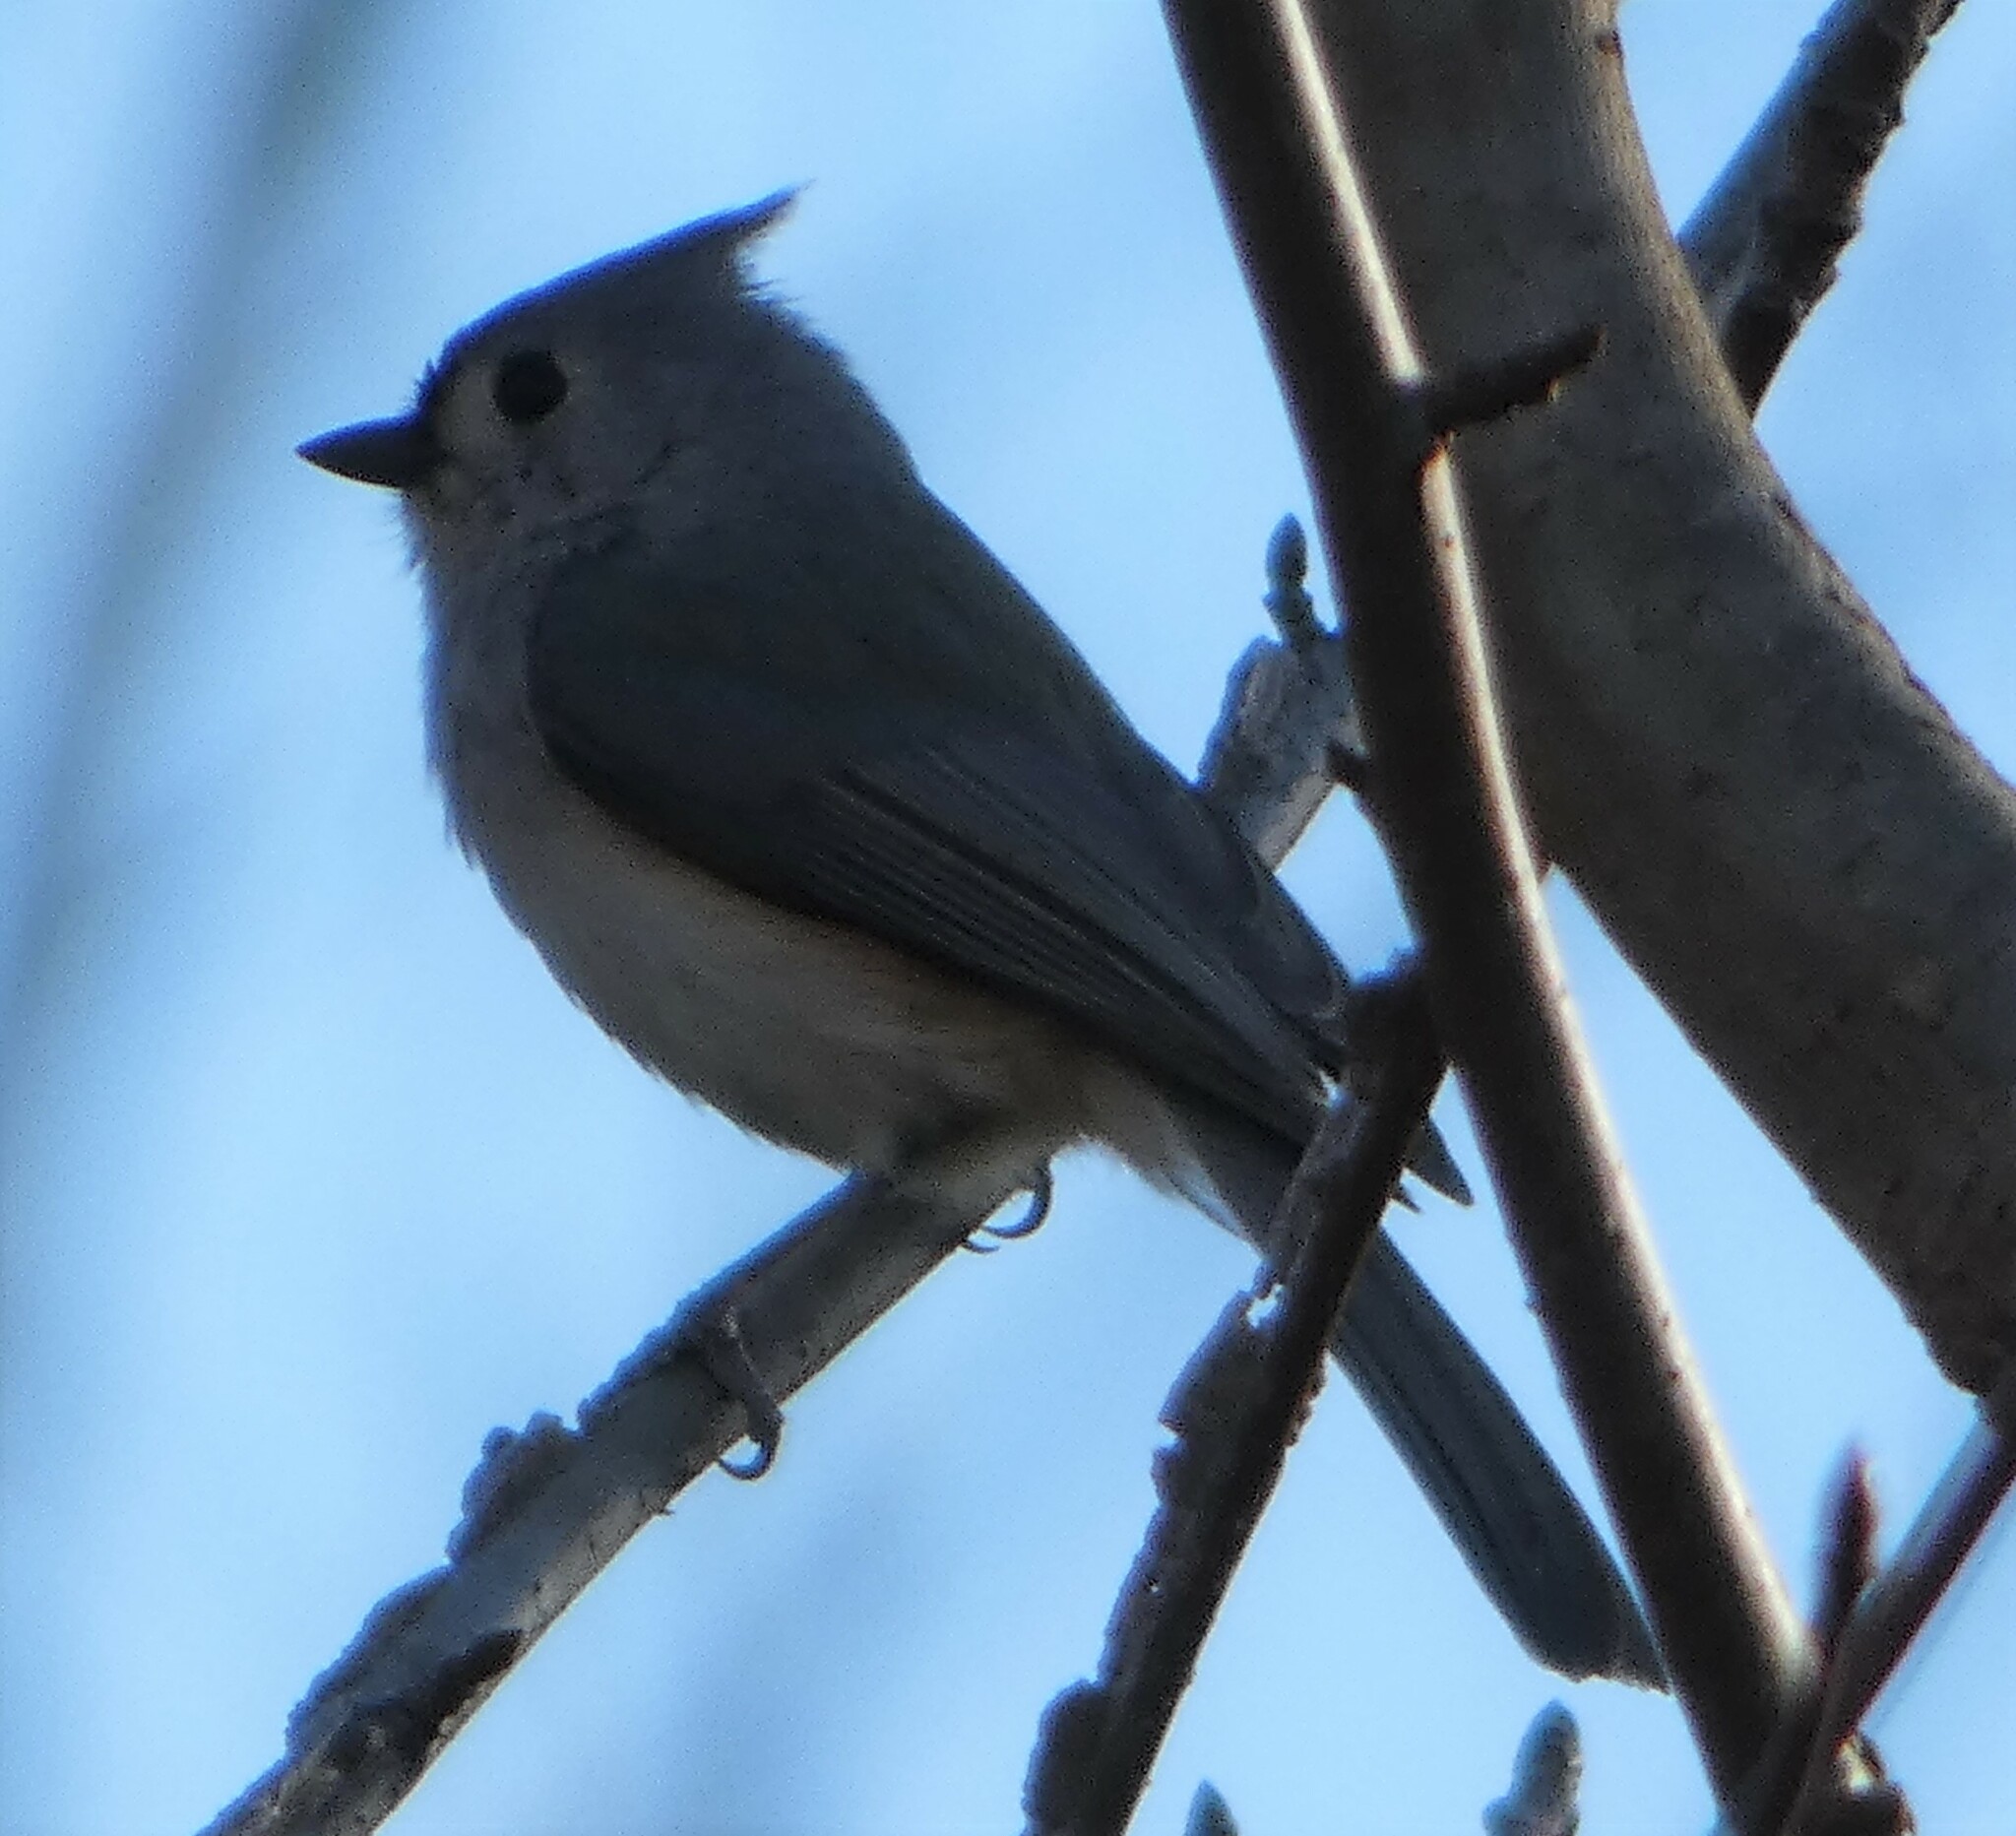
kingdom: Animalia
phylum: Chordata
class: Aves
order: Passeriformes
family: Paridae
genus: Baeolophus
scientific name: Baeolophus bicolor
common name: Tufted titmouse
